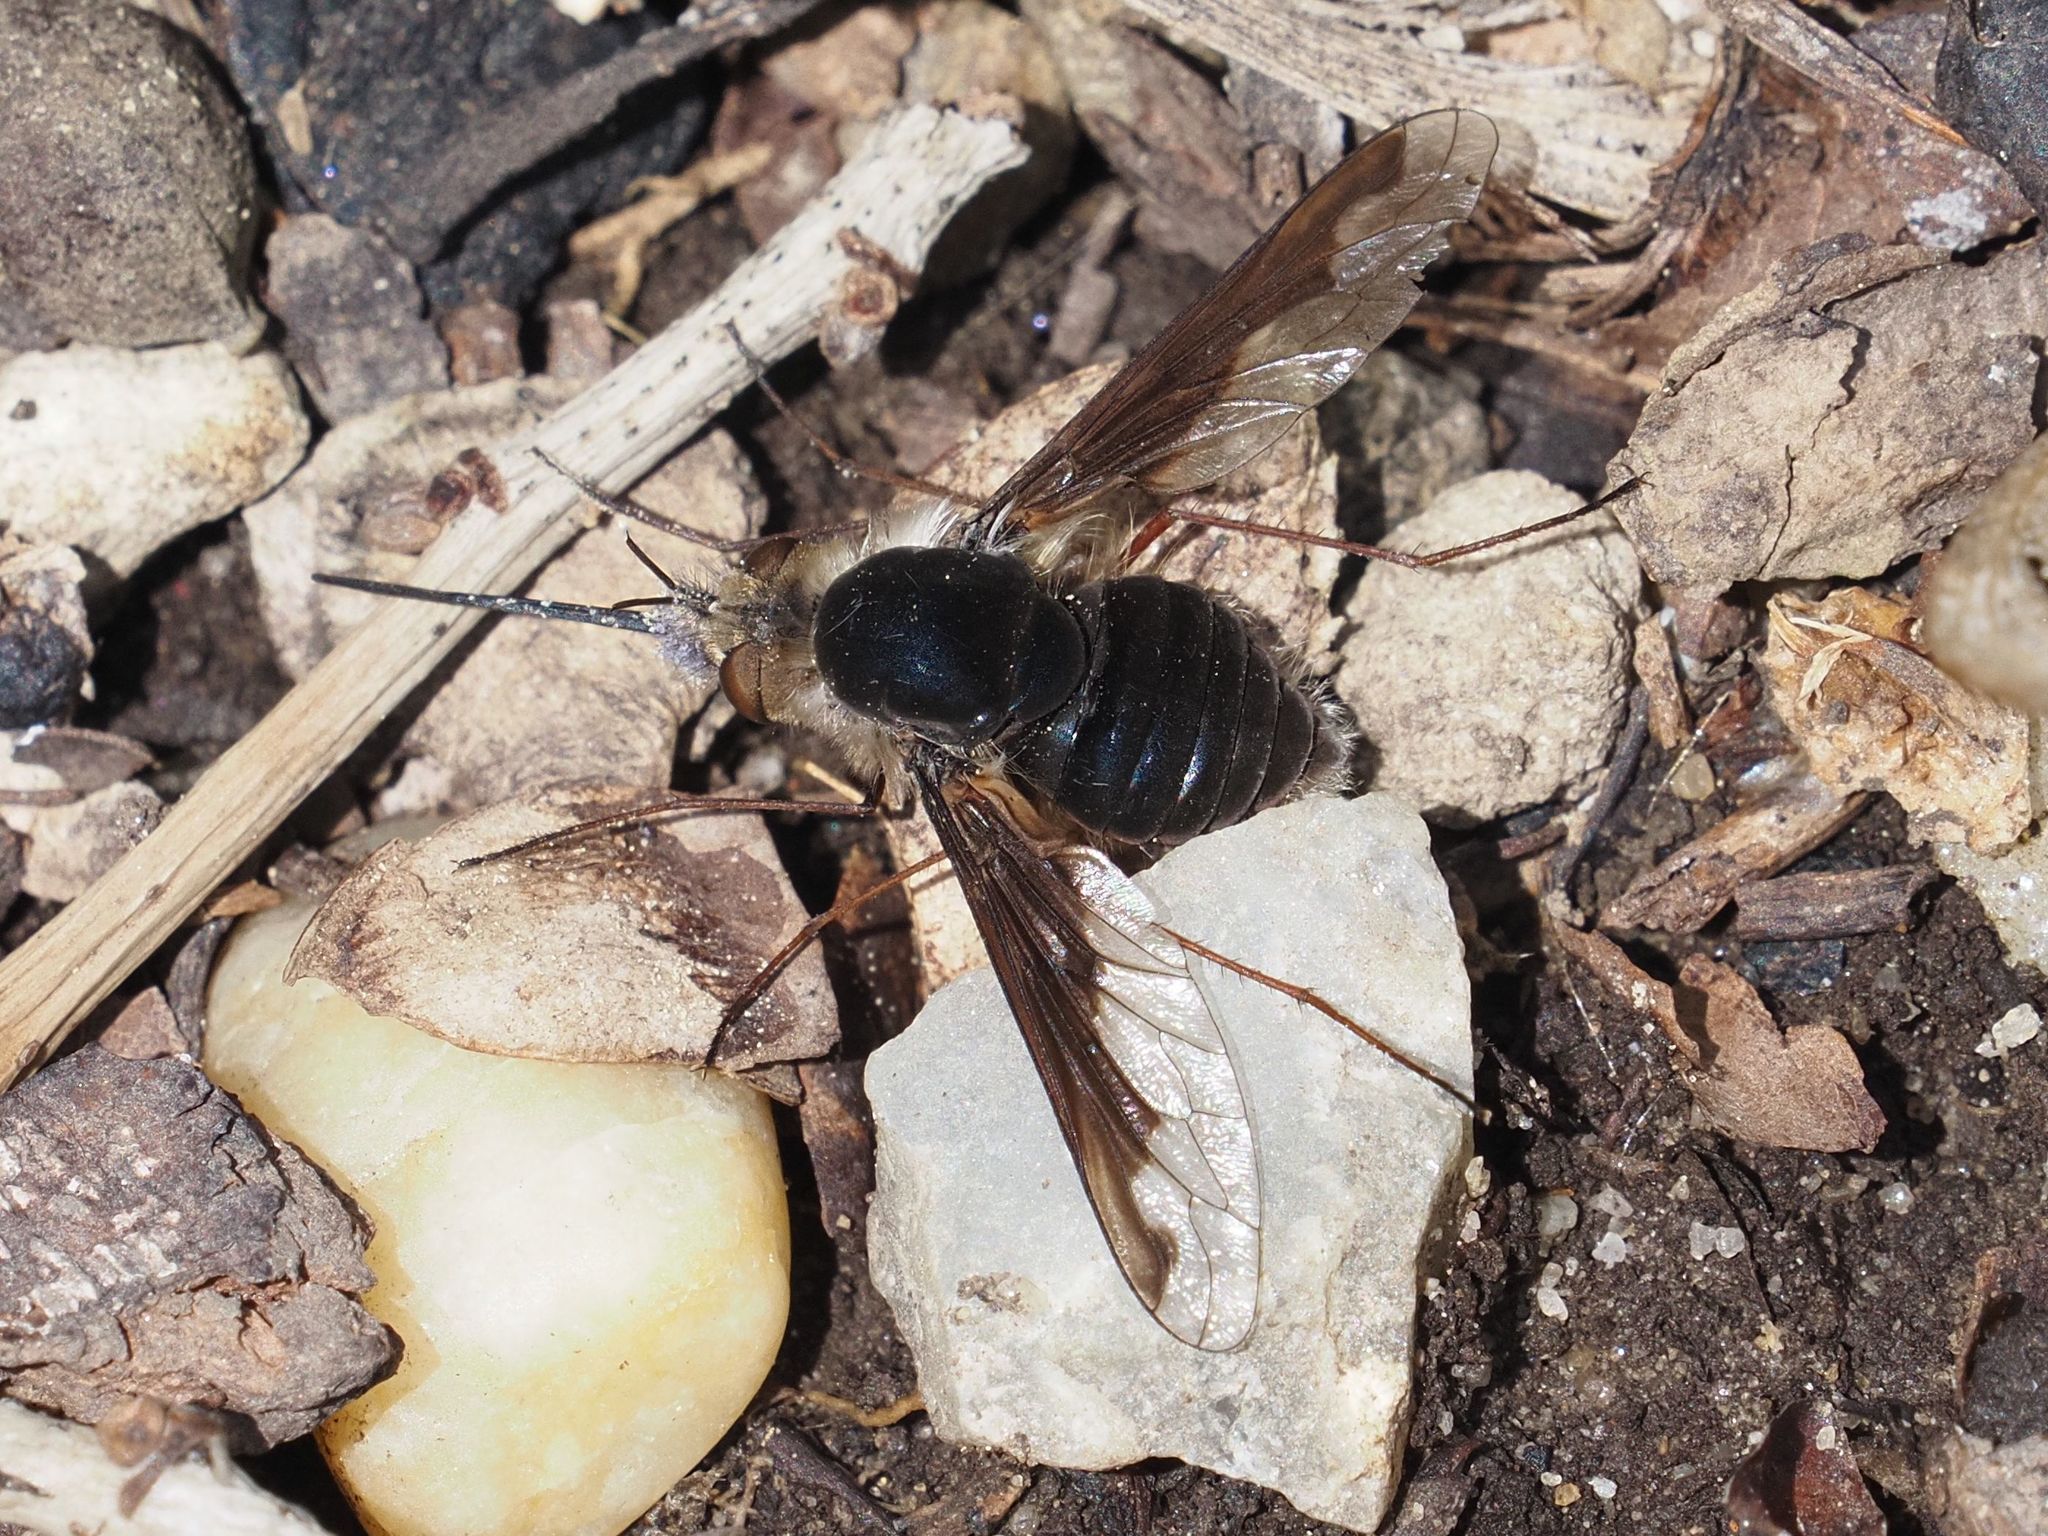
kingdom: Animalia
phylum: Arthropoda
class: Insecta
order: Diptera
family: Bombyliidae
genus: Bombylius
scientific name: Bombylius major
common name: Bee fly
